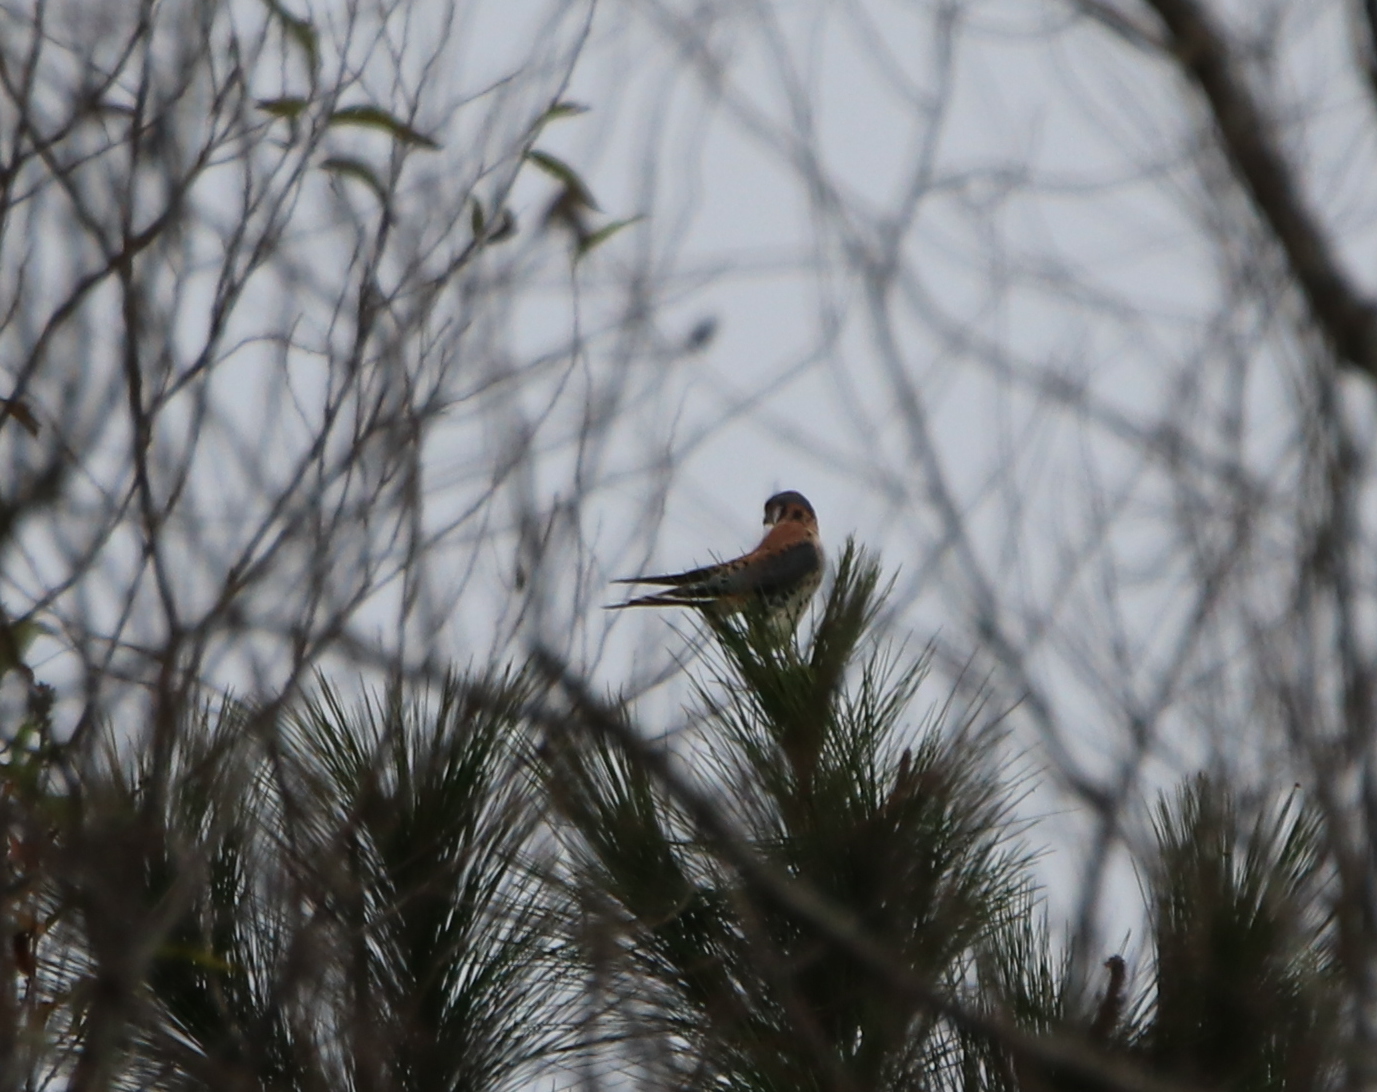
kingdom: Animalia
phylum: Chordata
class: Aves
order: Falconiformes
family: Falconidae
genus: Falco
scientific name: Falco sparverius
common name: American kestrel
